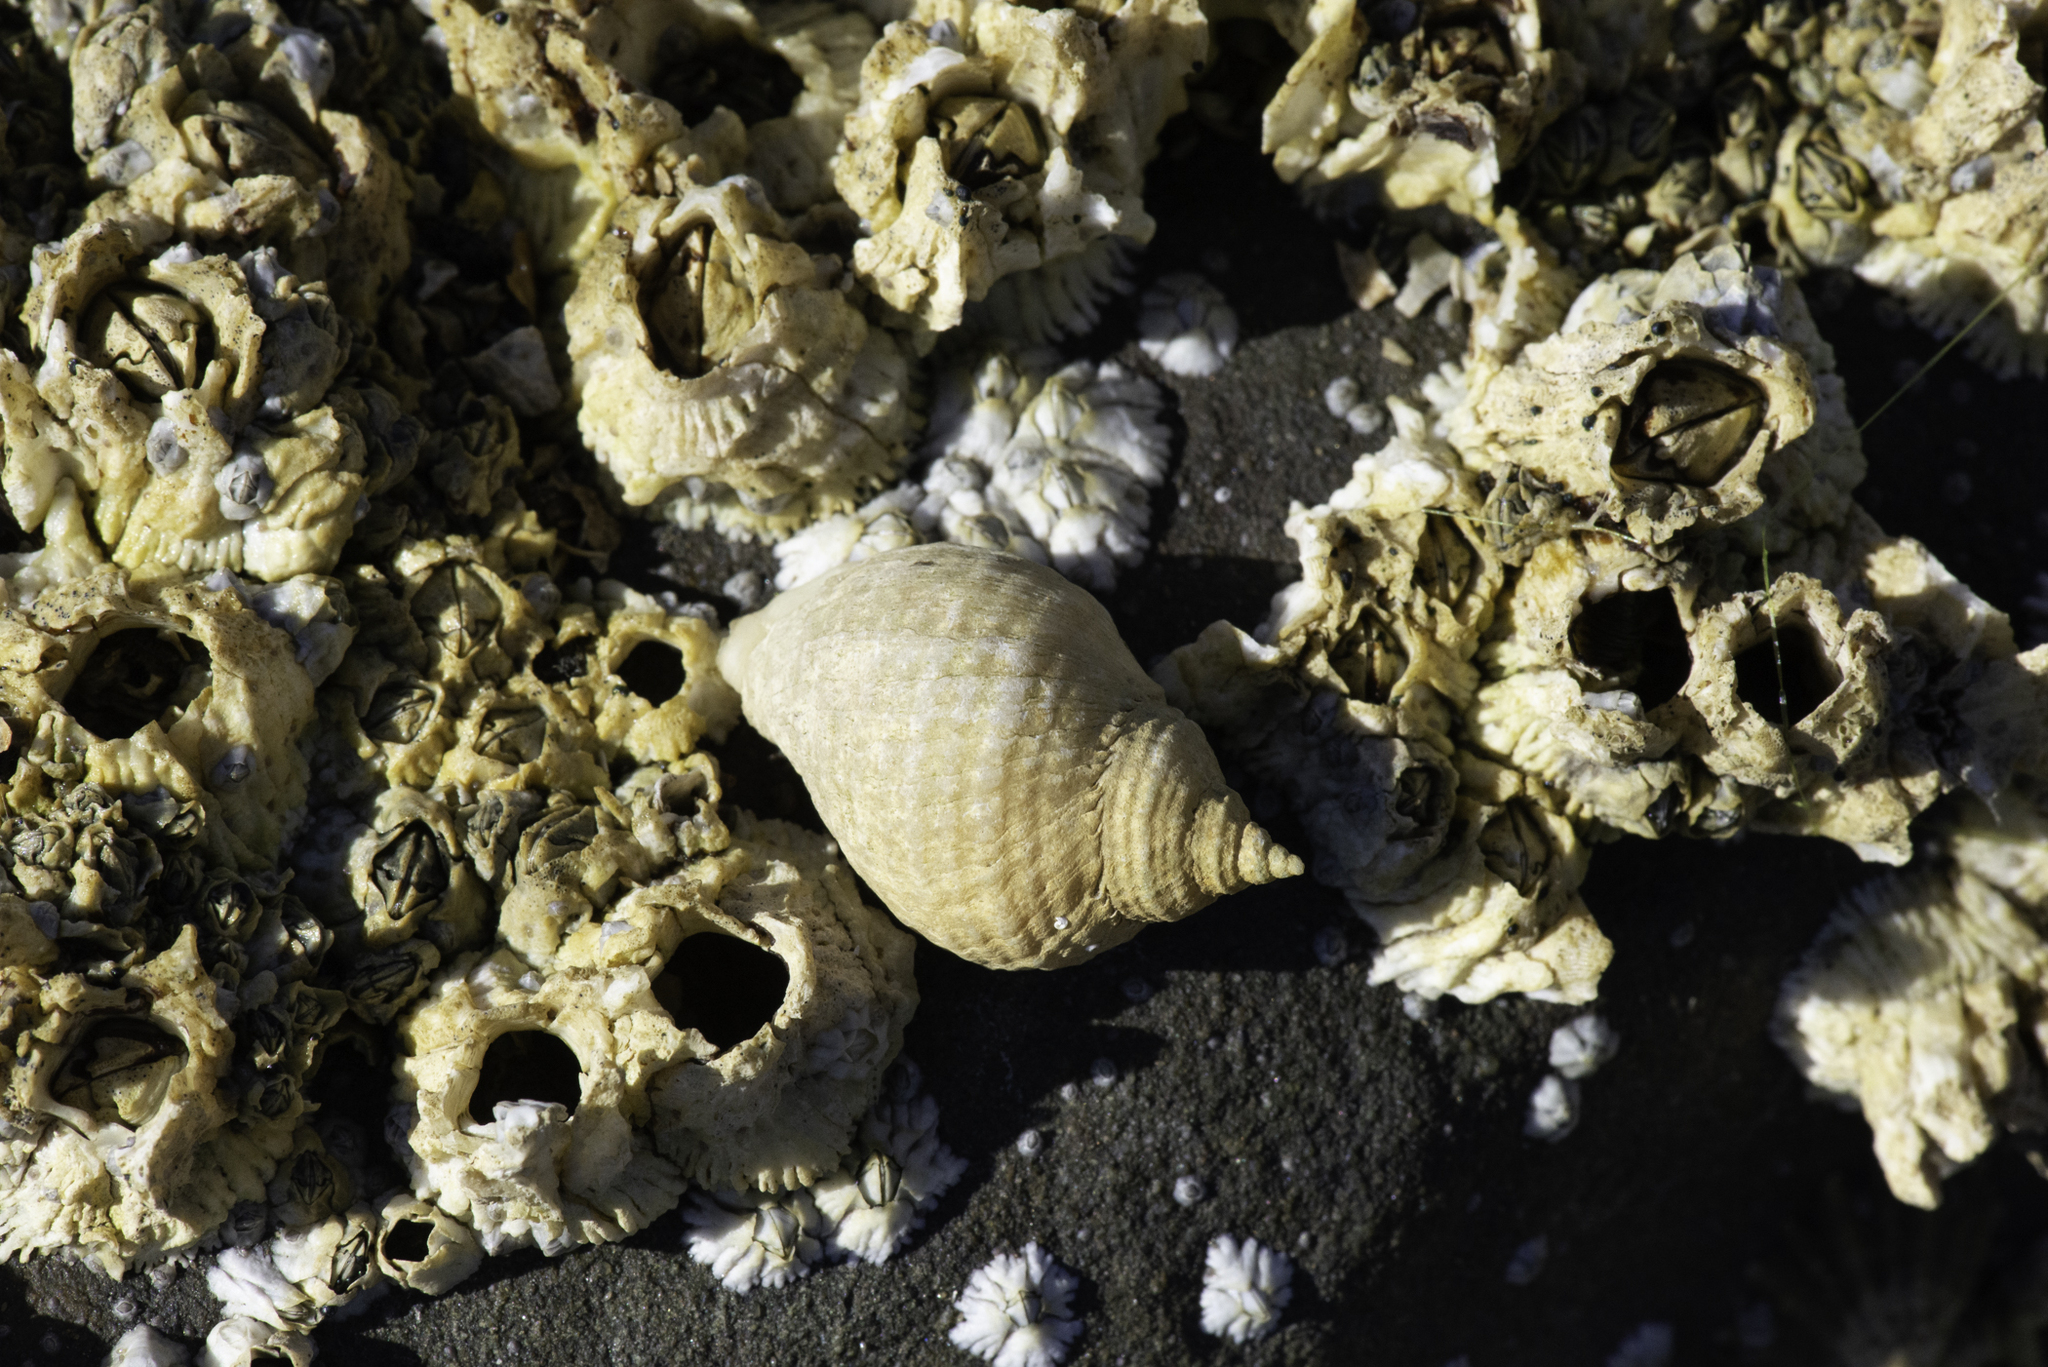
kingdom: Animalia
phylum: Mollusca
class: Gastropoda
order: Neogastropoda
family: Muricidae
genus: Nucella
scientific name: Nucella lapillus
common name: Dog whelk
